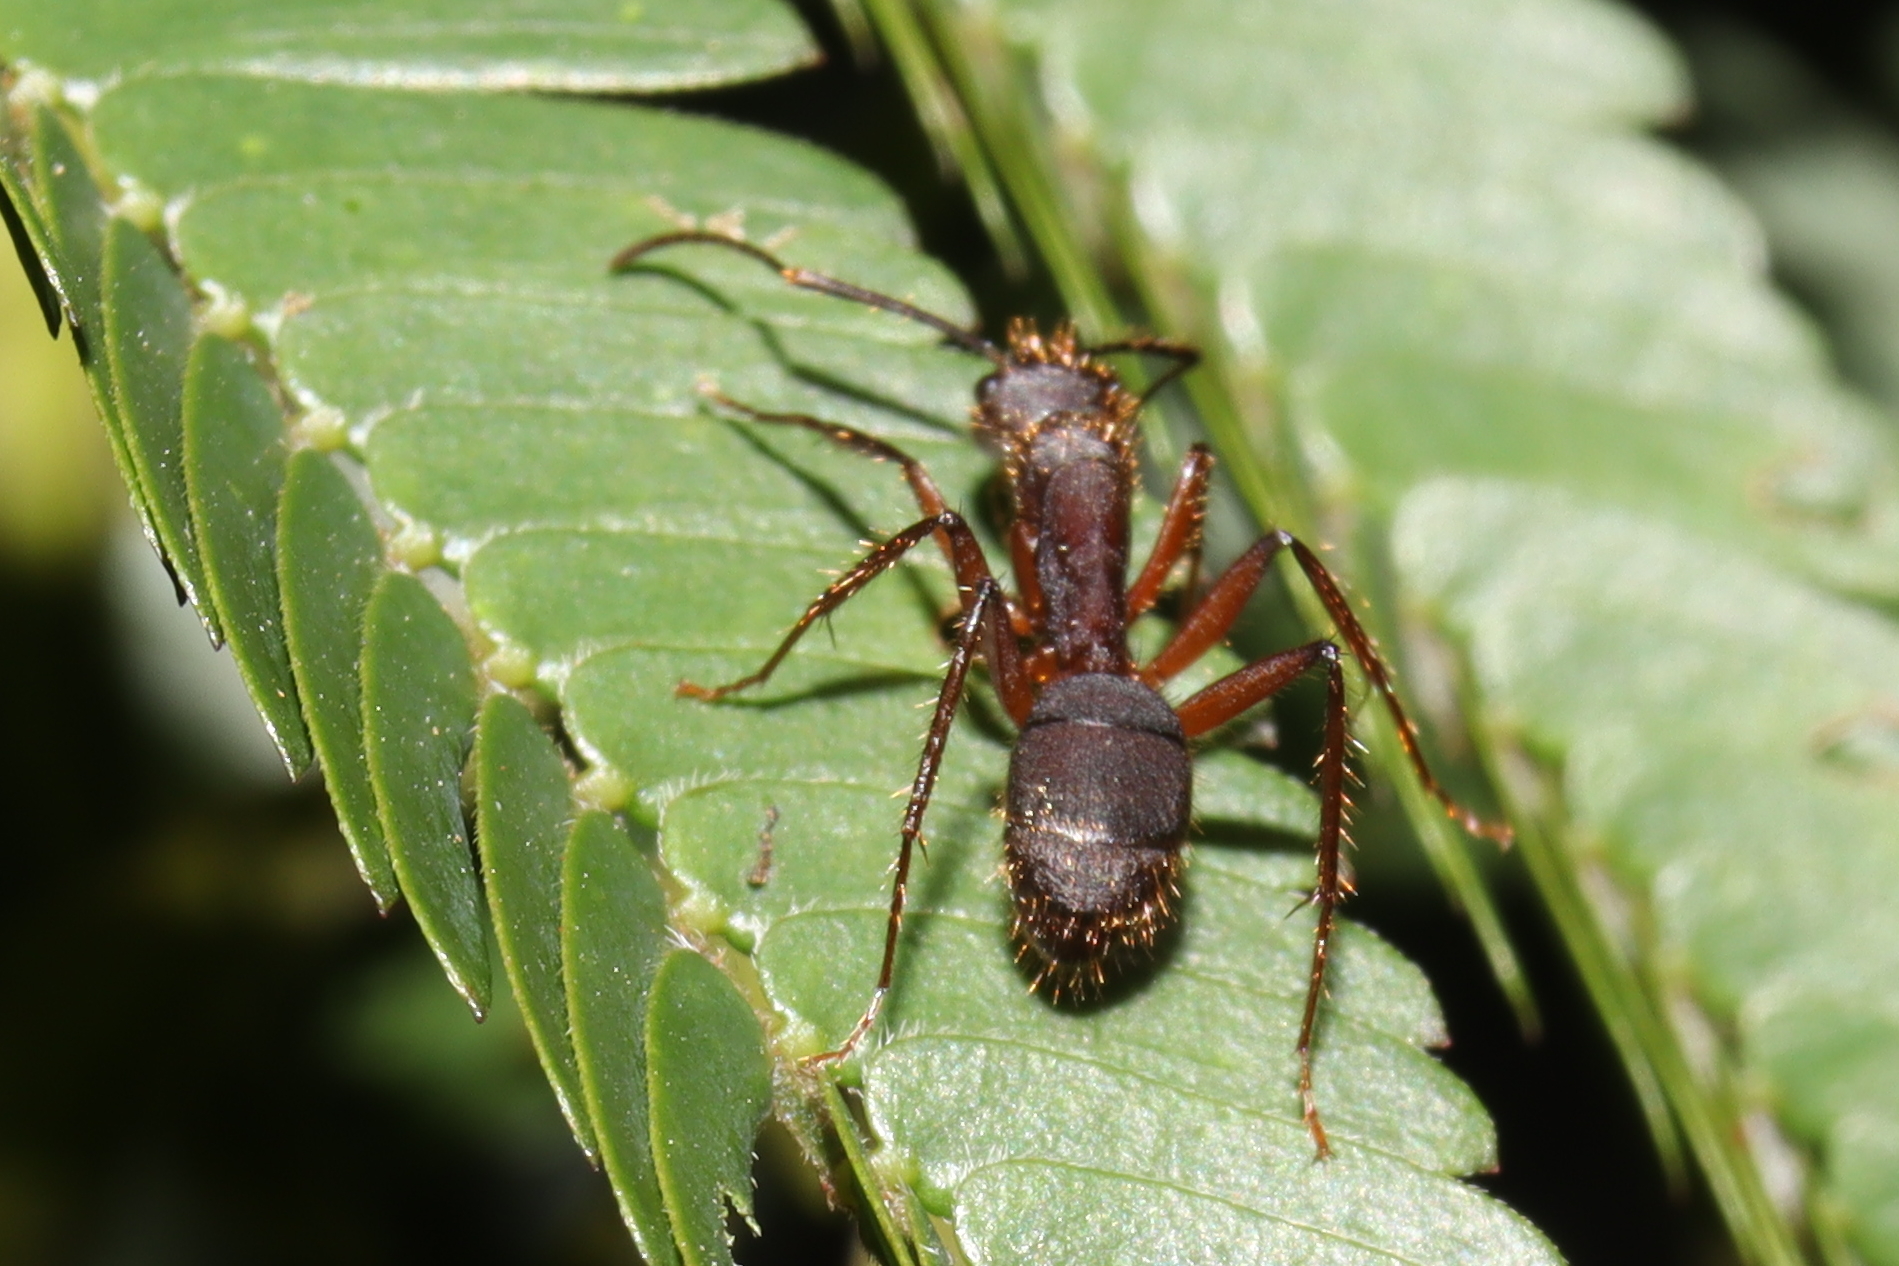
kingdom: Animalia
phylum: Arthropoda
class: Insecta
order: Hymenoptera
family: Formicidae
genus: Camponotus
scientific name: Camponotus rufipes
